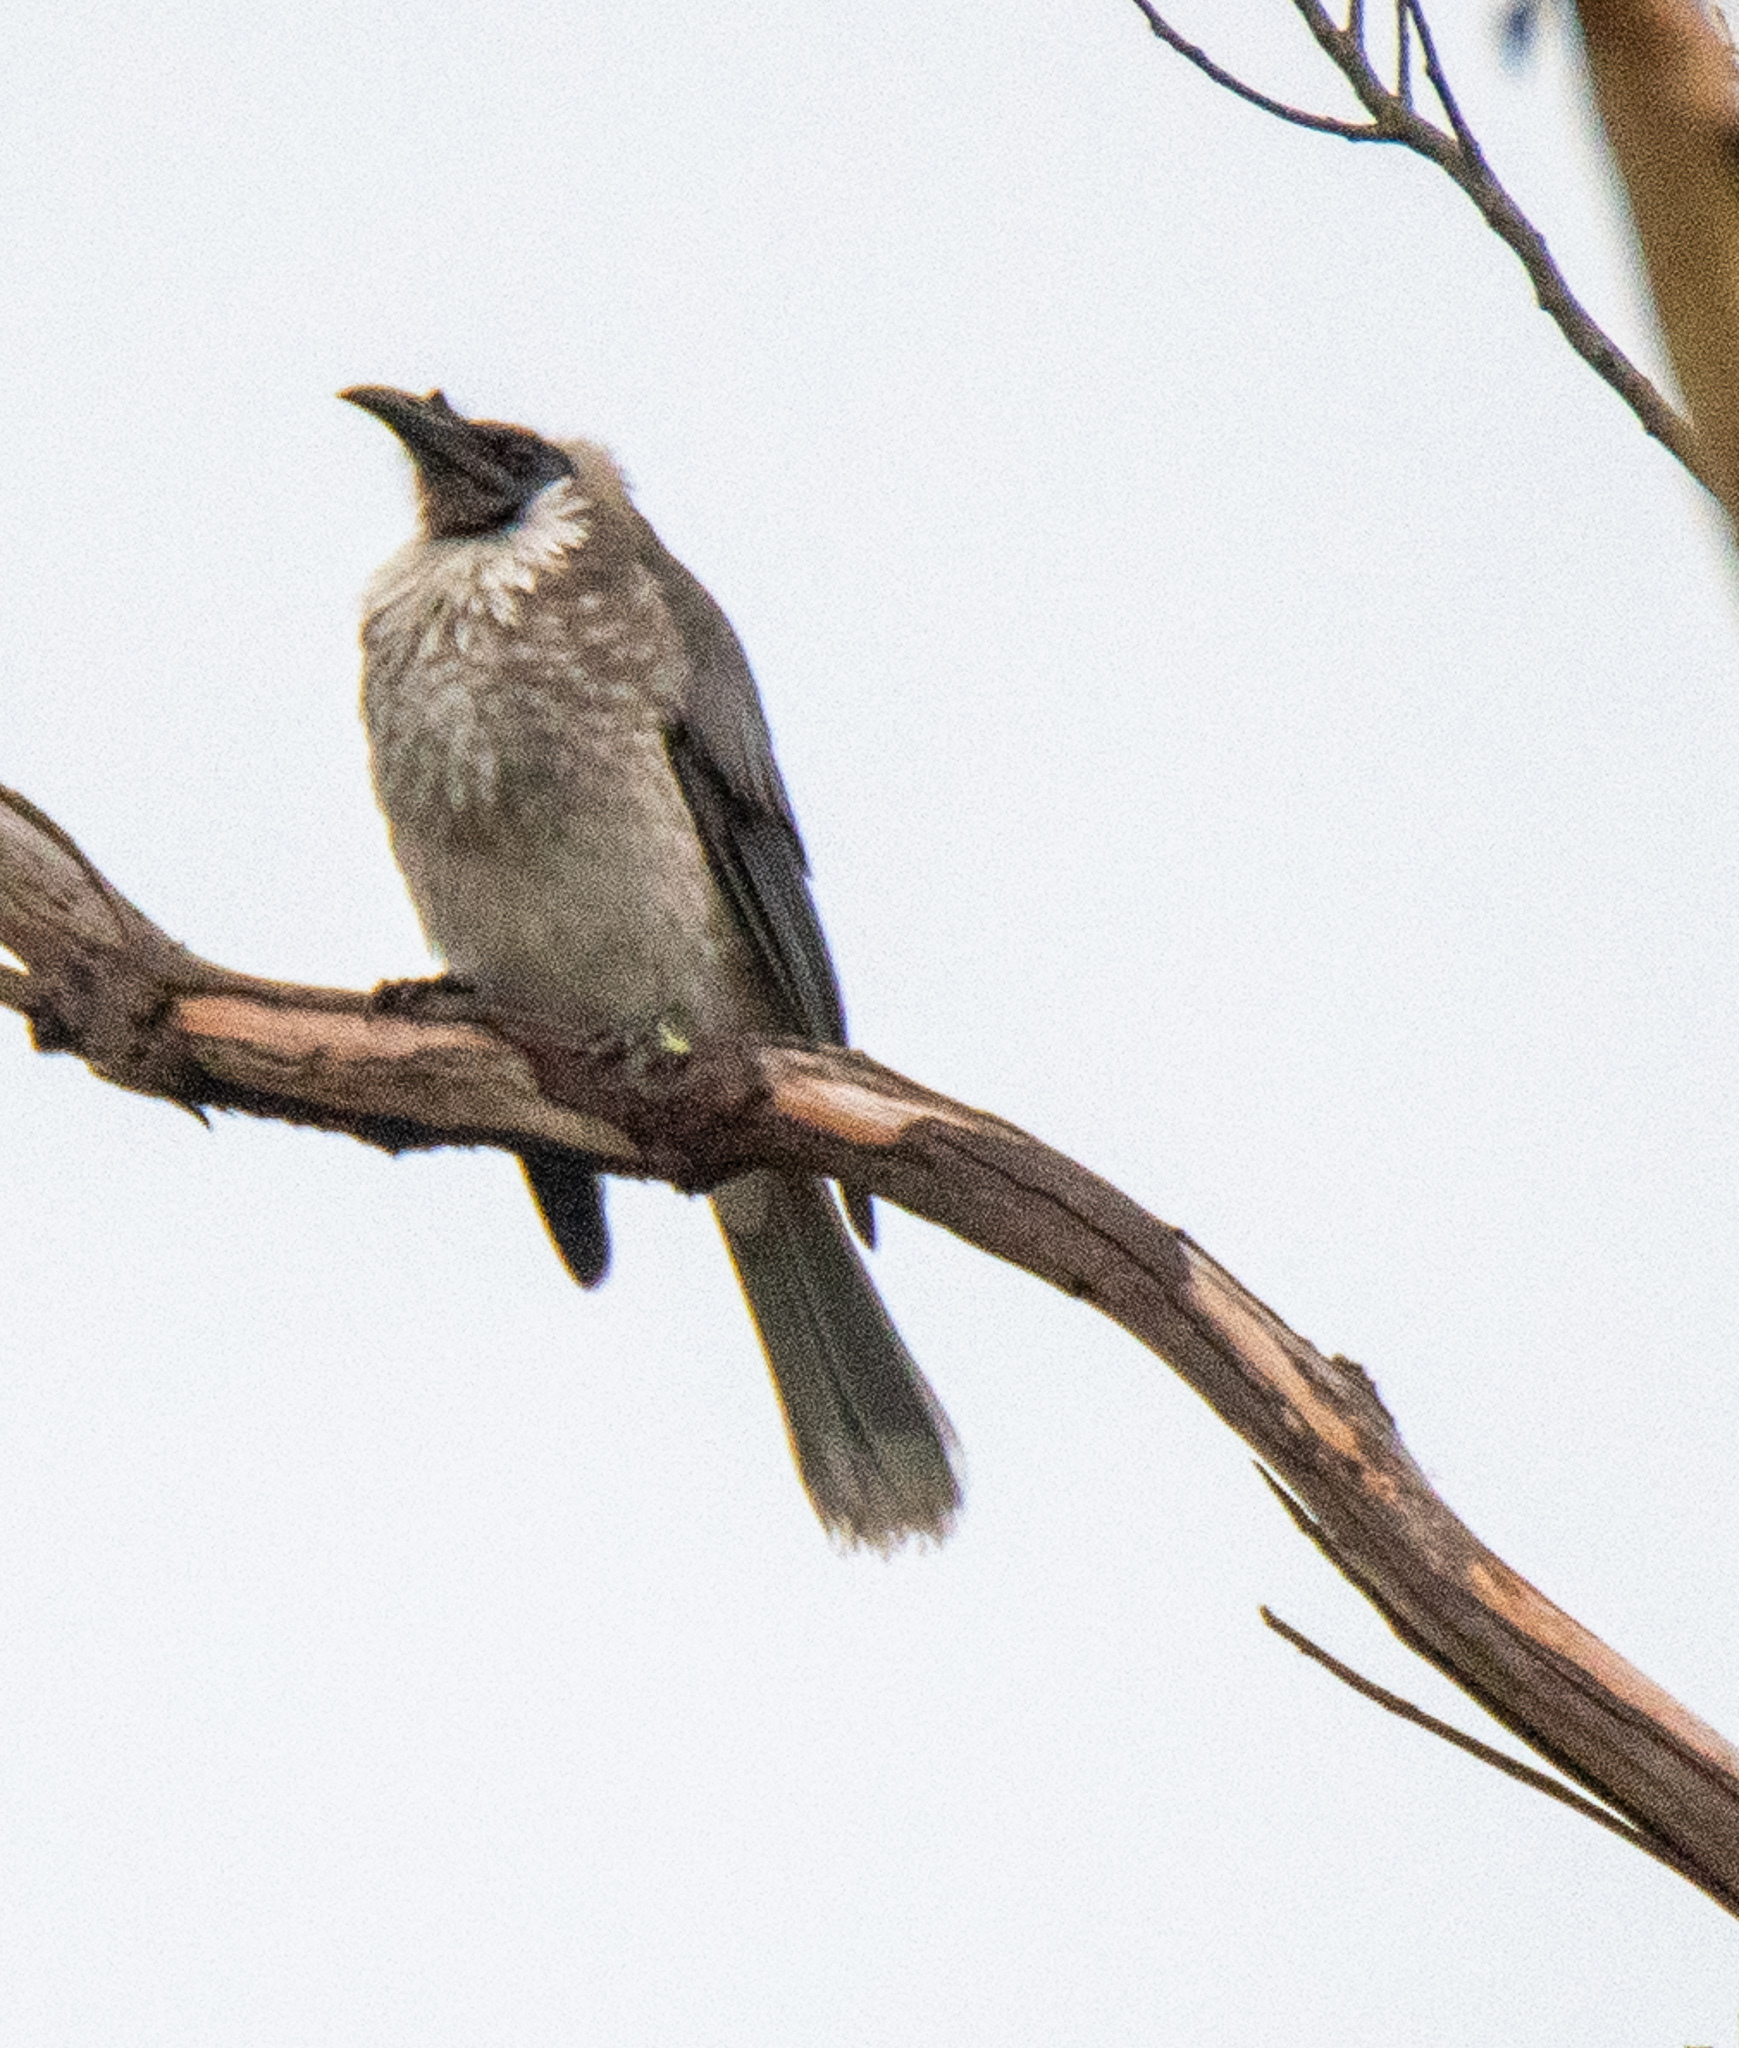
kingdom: Animalia
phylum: Chordata
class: Aves
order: Passeriformes
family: Meliphagidae
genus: Philemon
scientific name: Philemon corniculatus
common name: Noisy friarbird
